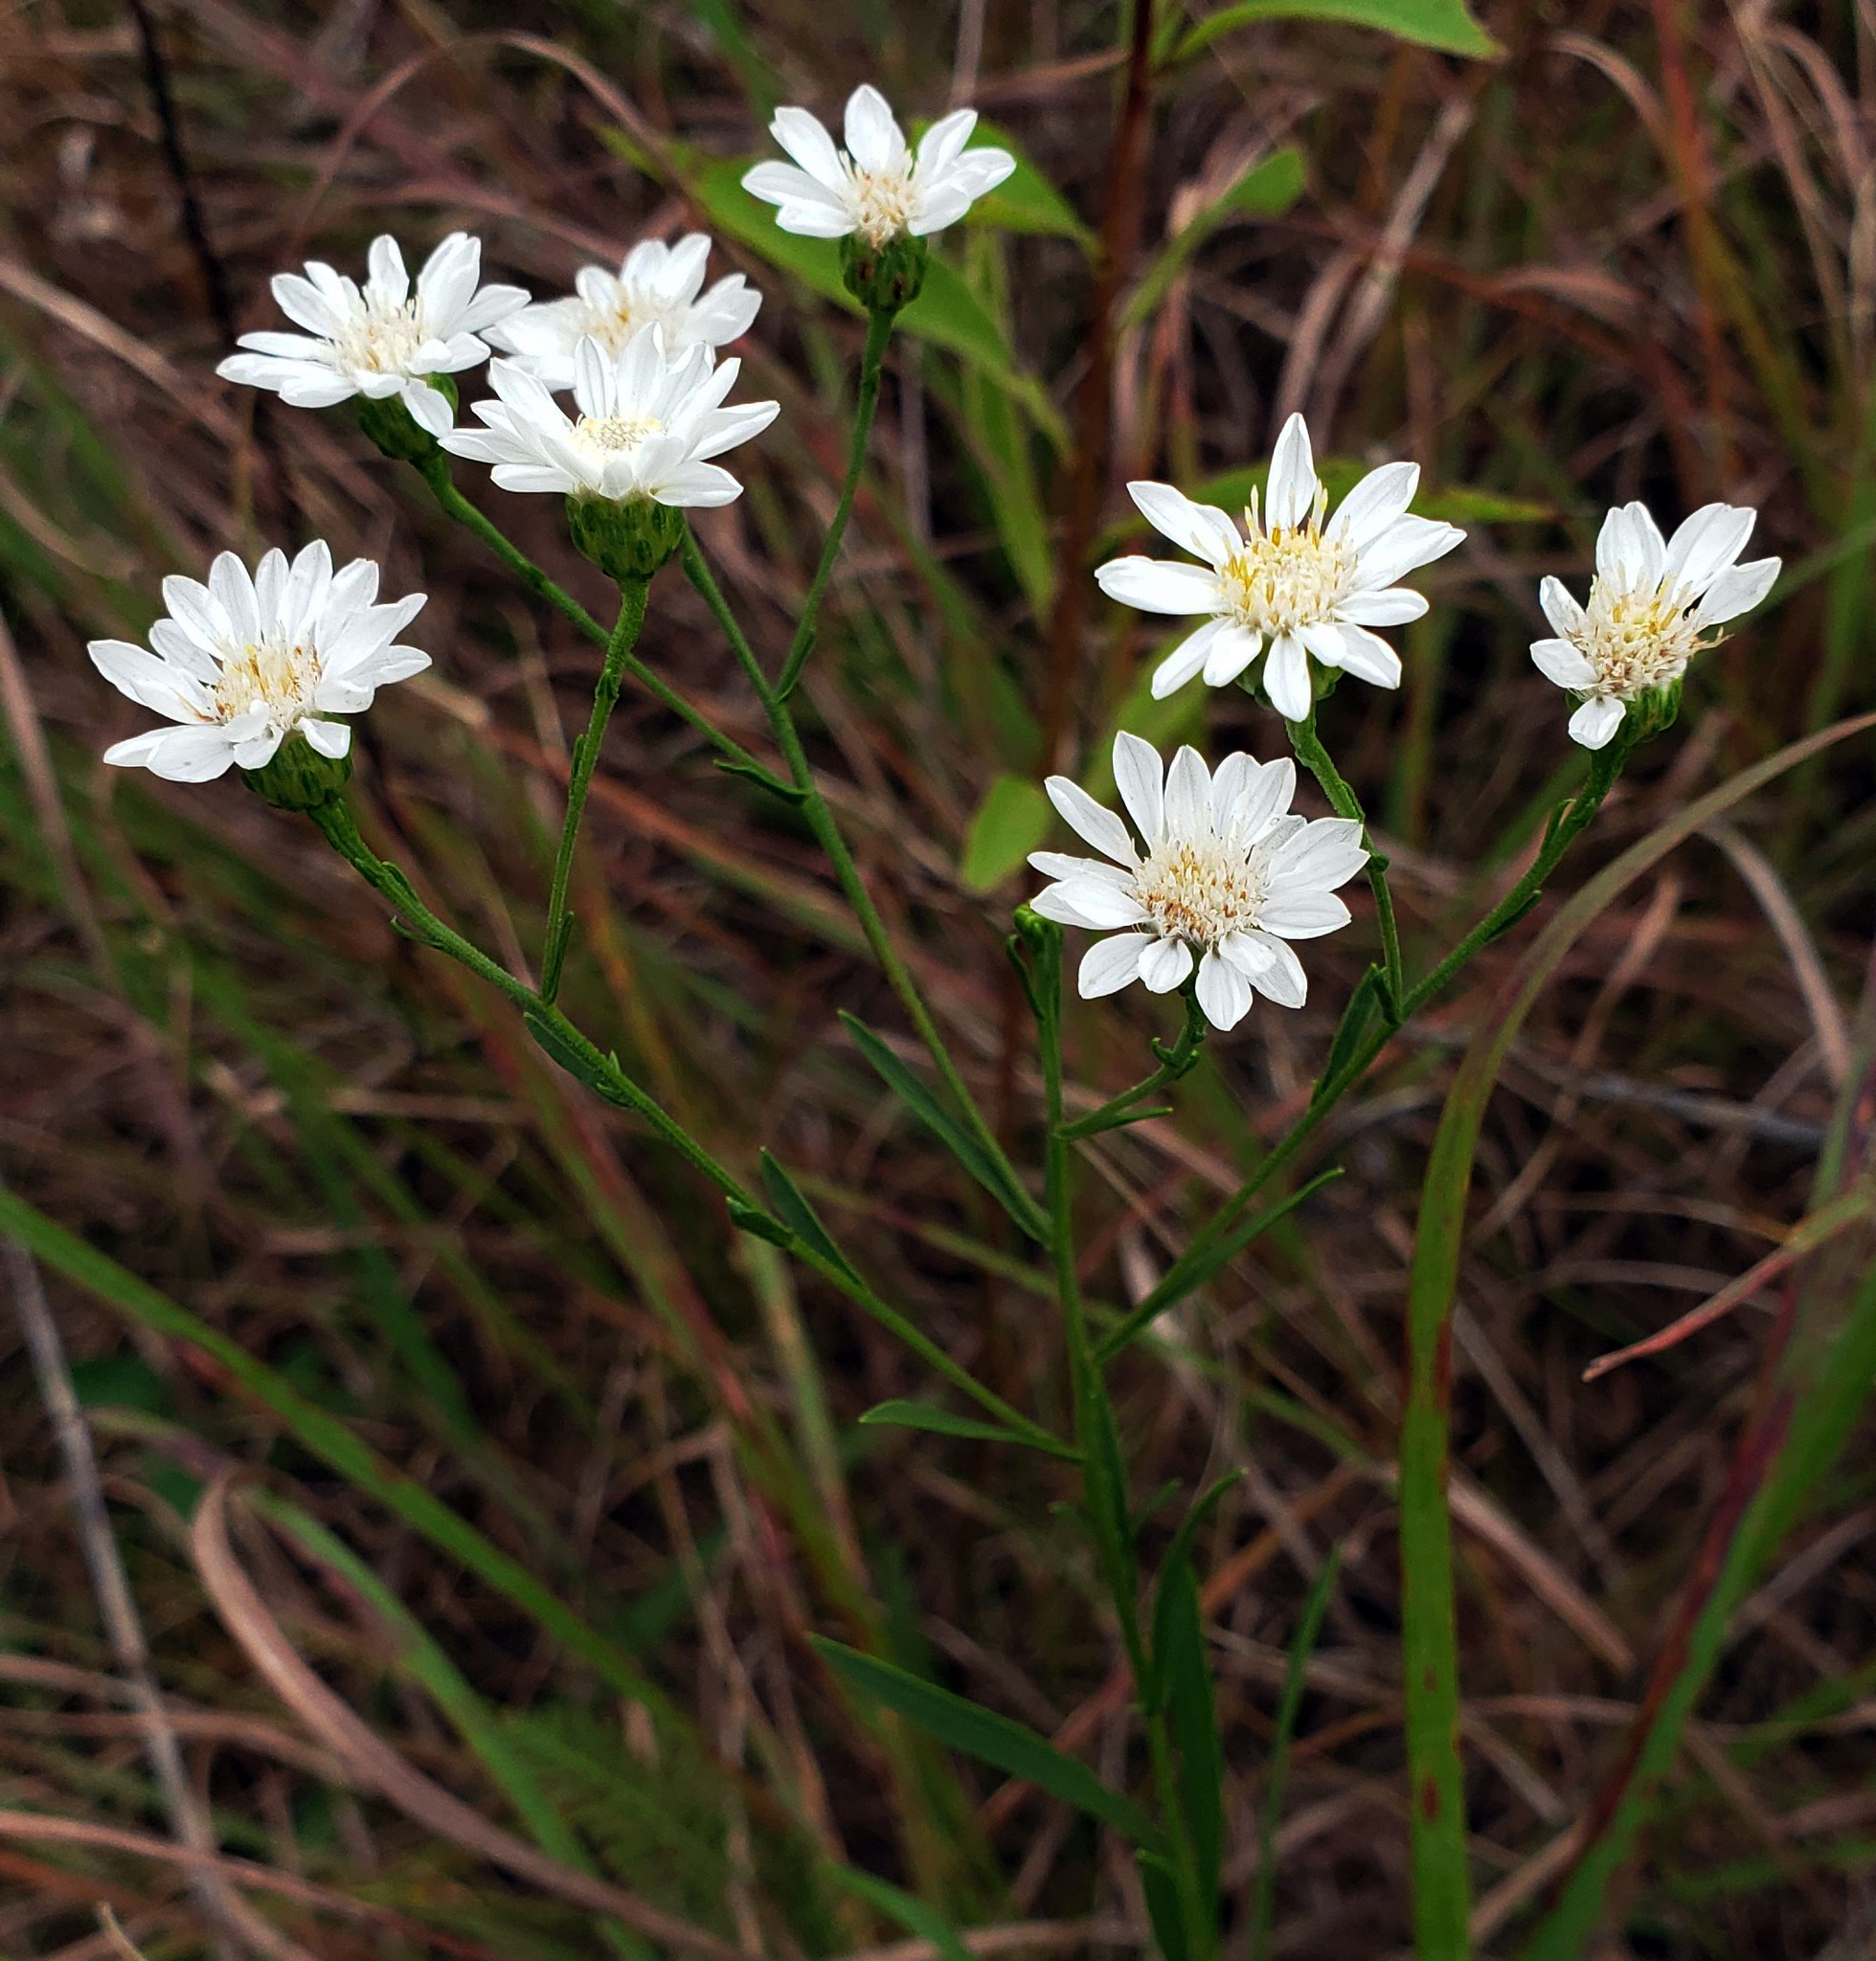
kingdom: Plantae
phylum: Tracheophyta
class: Magnoliopsida
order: Asterales
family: Asteraceae
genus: Solidago
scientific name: Solidago ptarmicoides
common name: White flat-top goldenrod
